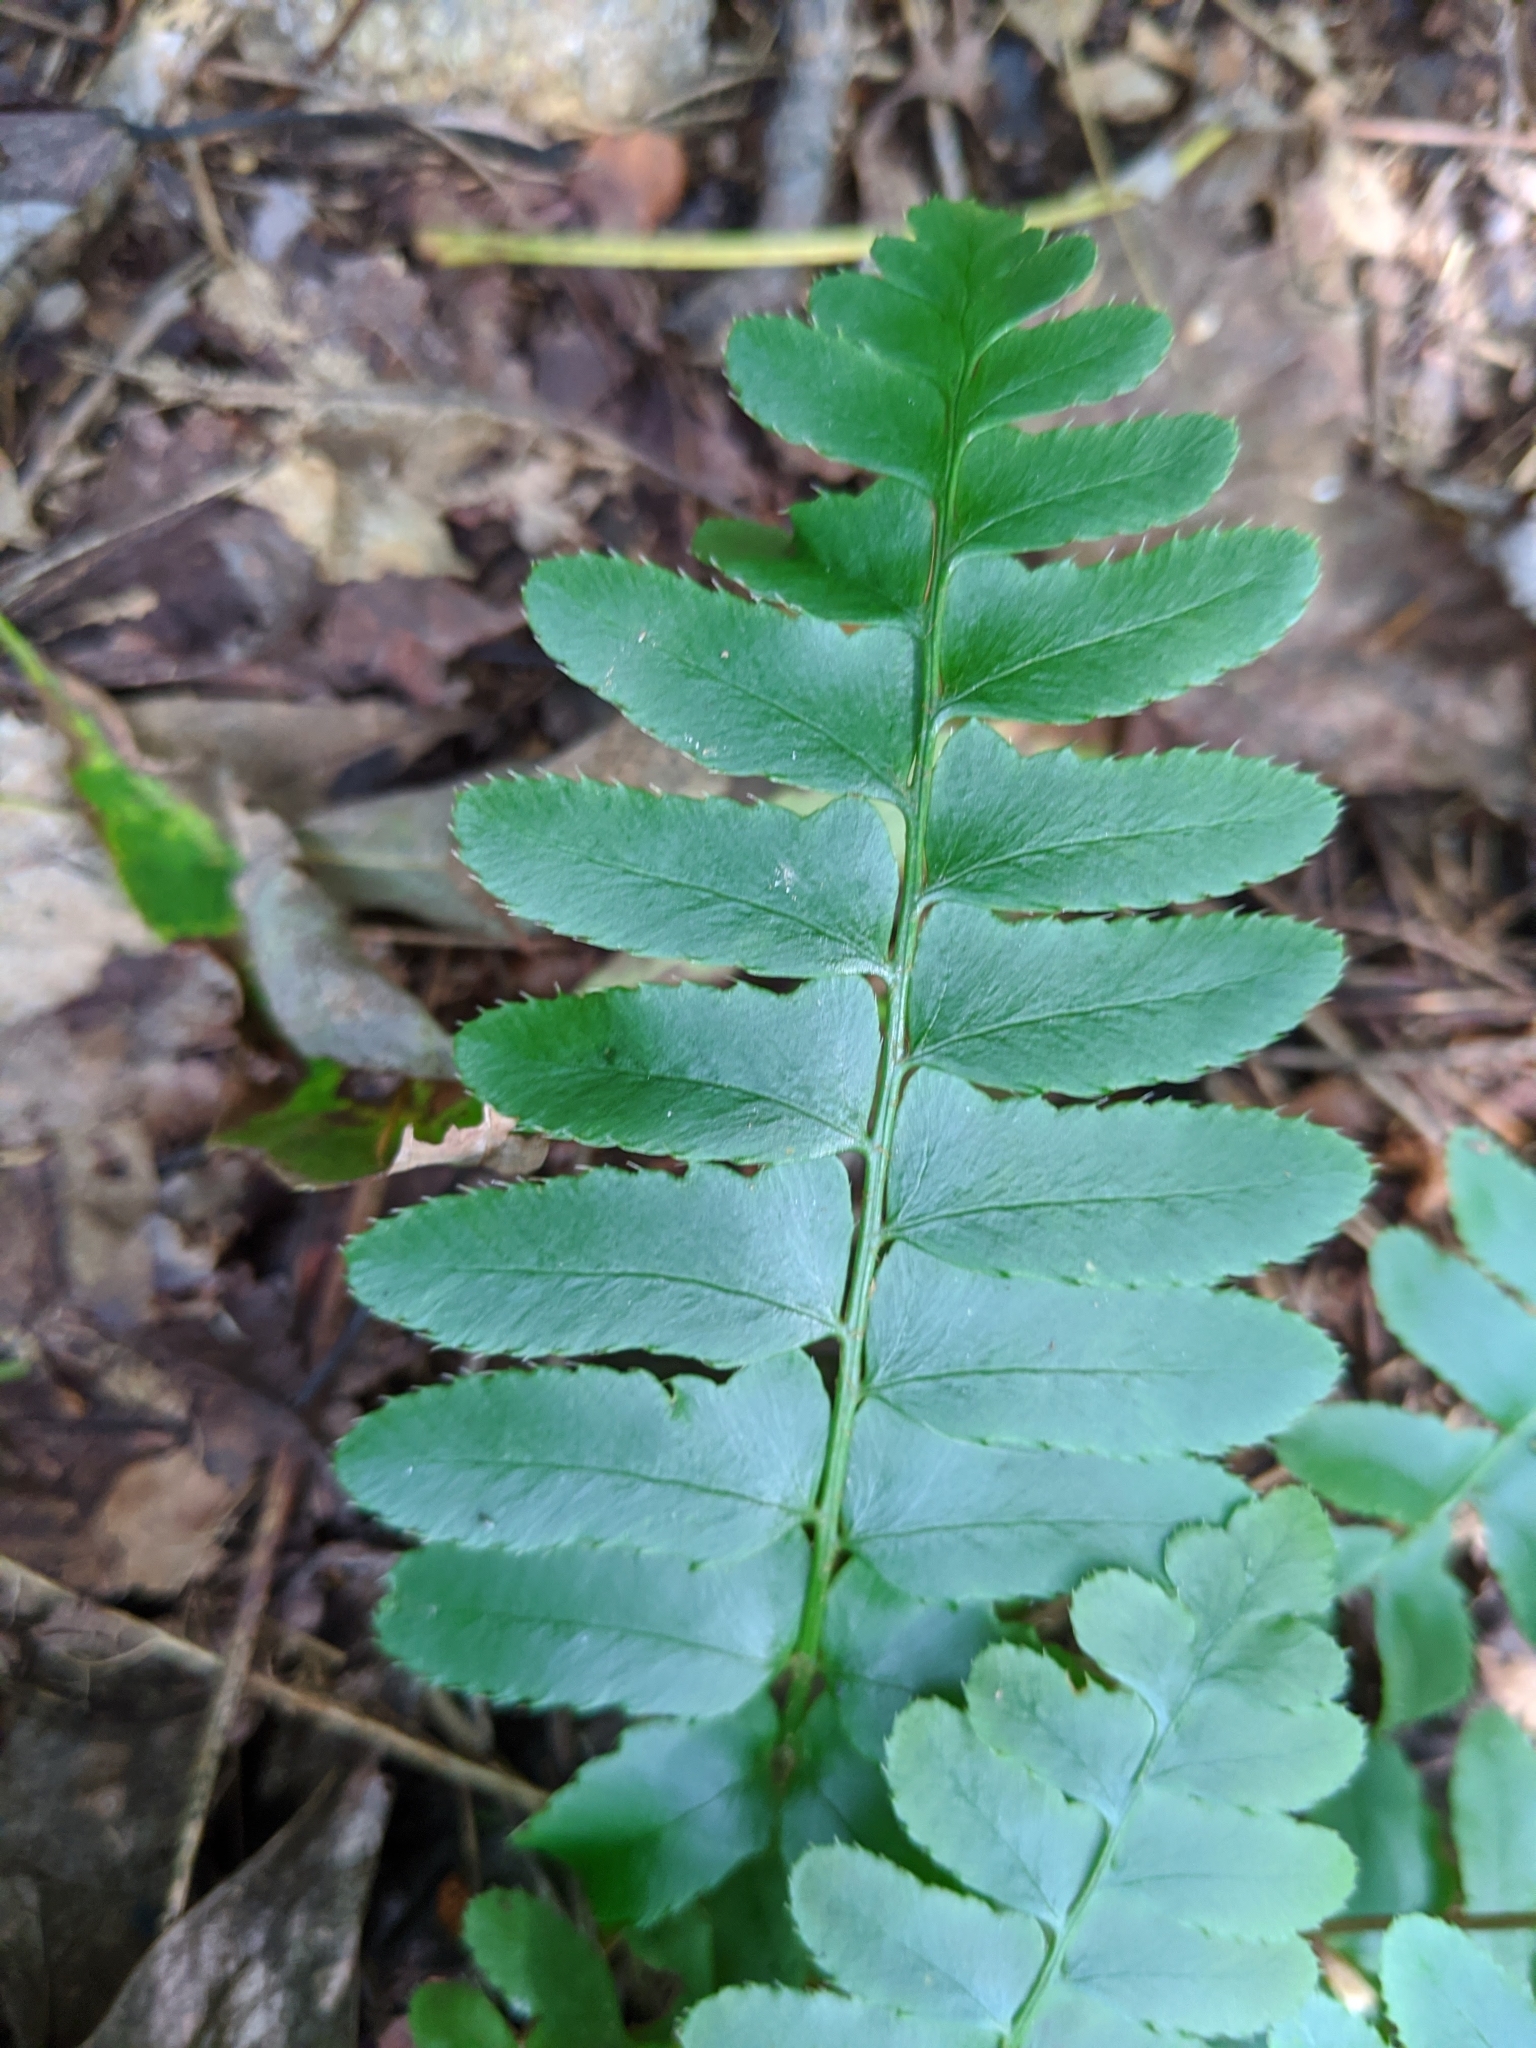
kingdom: Plantae
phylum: Tracheophyta
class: Polypodiopsida
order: Polypodiales
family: Dryopteridaceae
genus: Polystichum
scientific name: Polystichum acrostichoides
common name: Christmas fern
